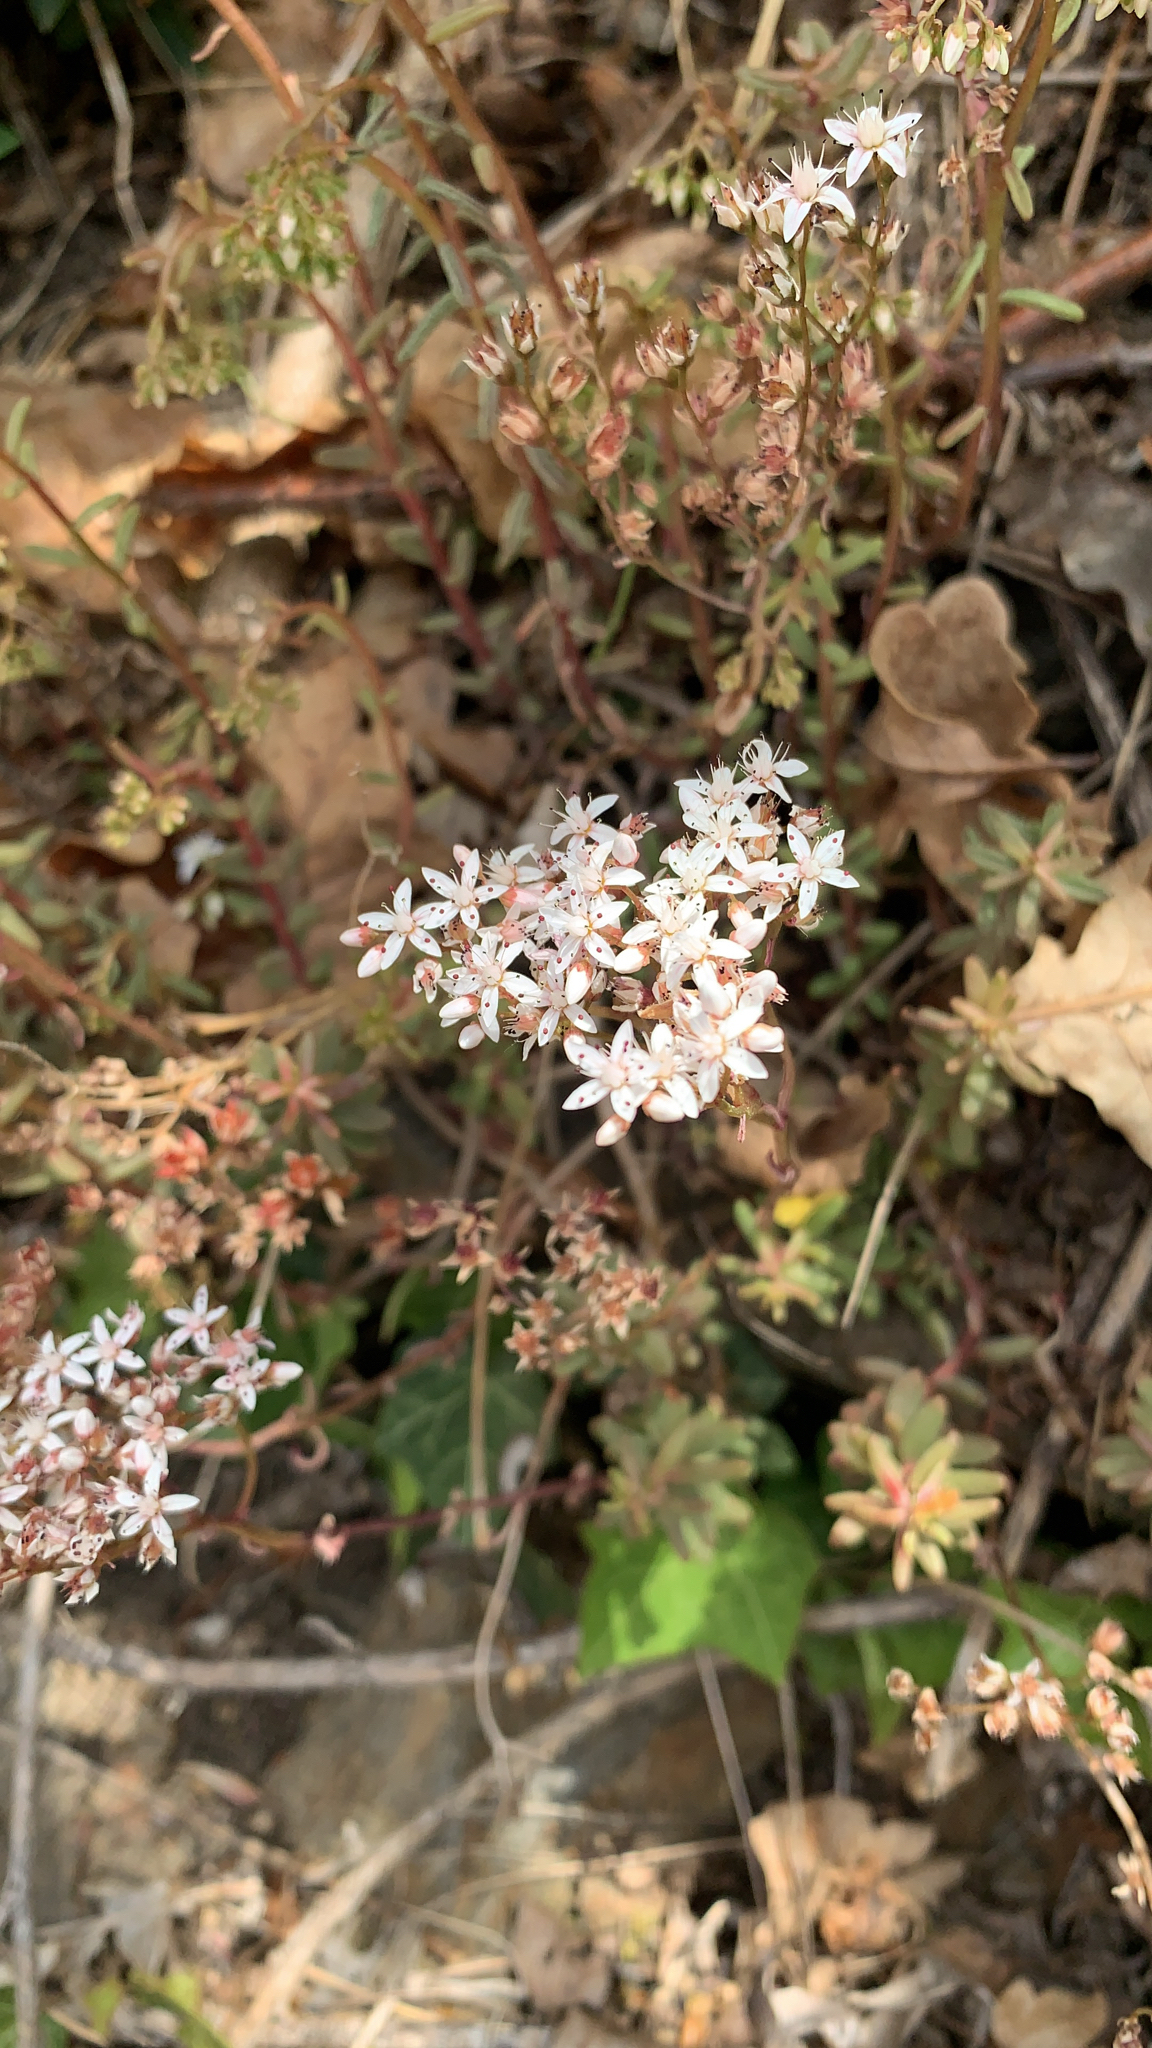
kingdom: Plantae
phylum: Tracheophyta
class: Magnoliopsida
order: Saxifragales
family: Crassulaceae
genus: Sedum
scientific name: Sedum album
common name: White stonecrop
